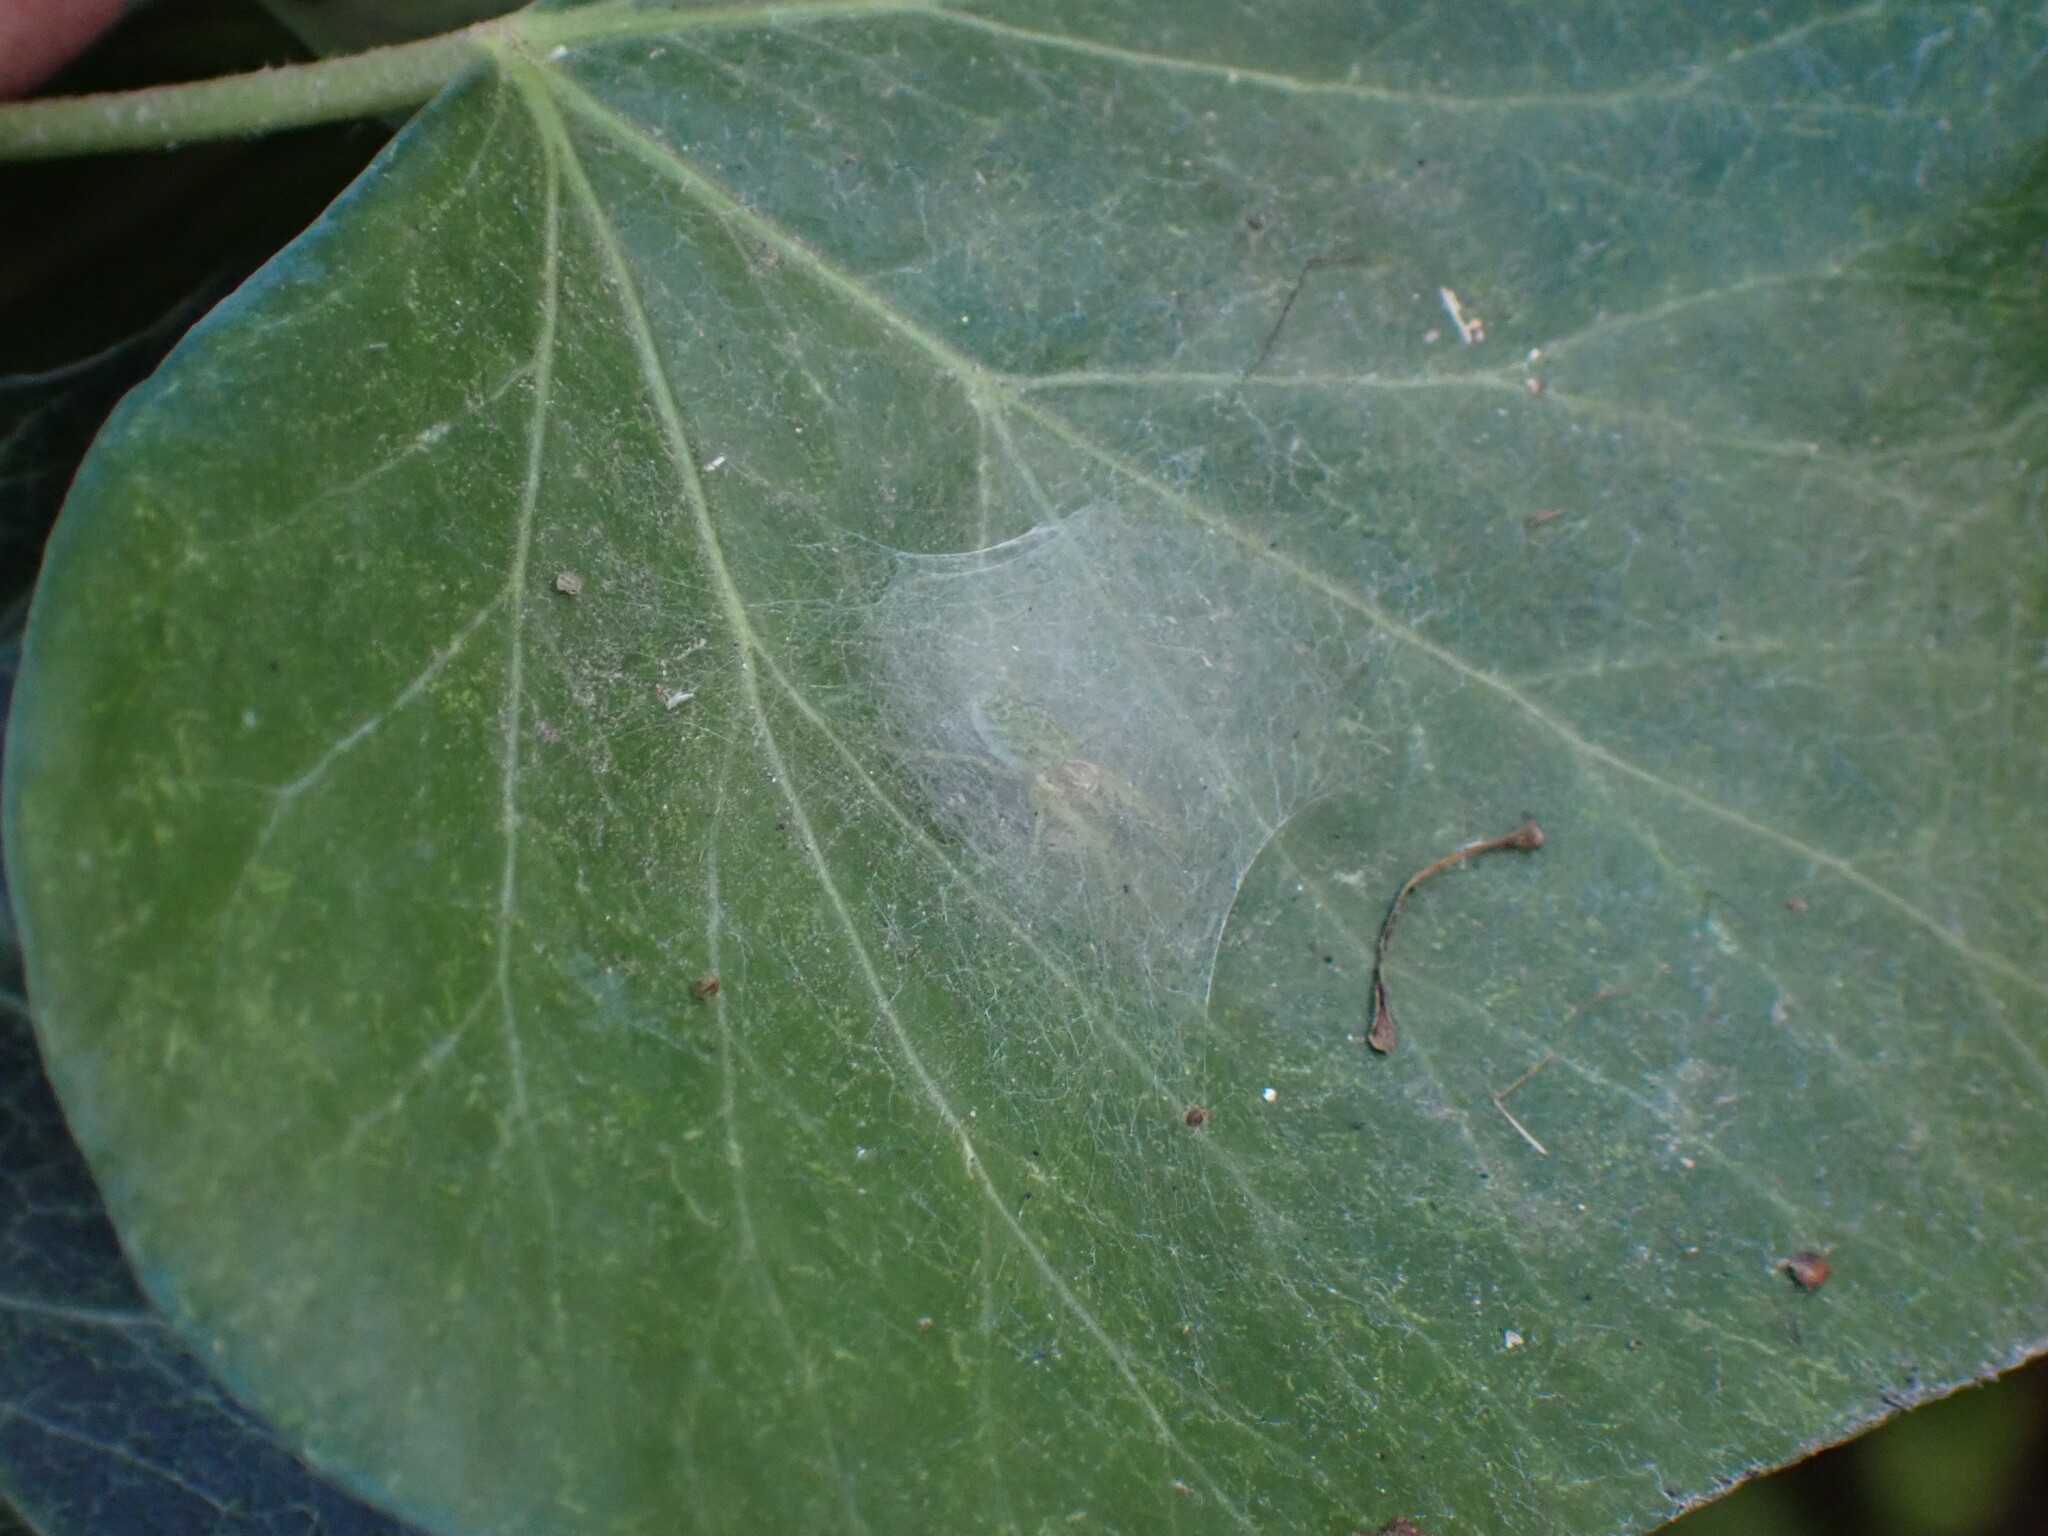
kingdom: Animalia
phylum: Arthropoda
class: Arachnida
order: Araneae
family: Dictynidae
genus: Nigma
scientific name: Nigma walckenaeri
